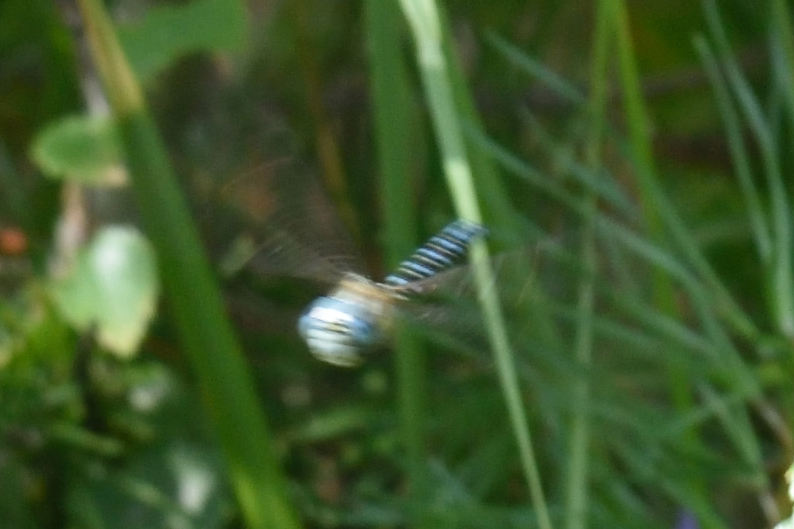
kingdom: Animalia
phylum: Arthropoda
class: Insecta
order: Odonata
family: Aeshnidae
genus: Aeshna
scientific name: Aeshna affinis
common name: Southern migrant hawker
